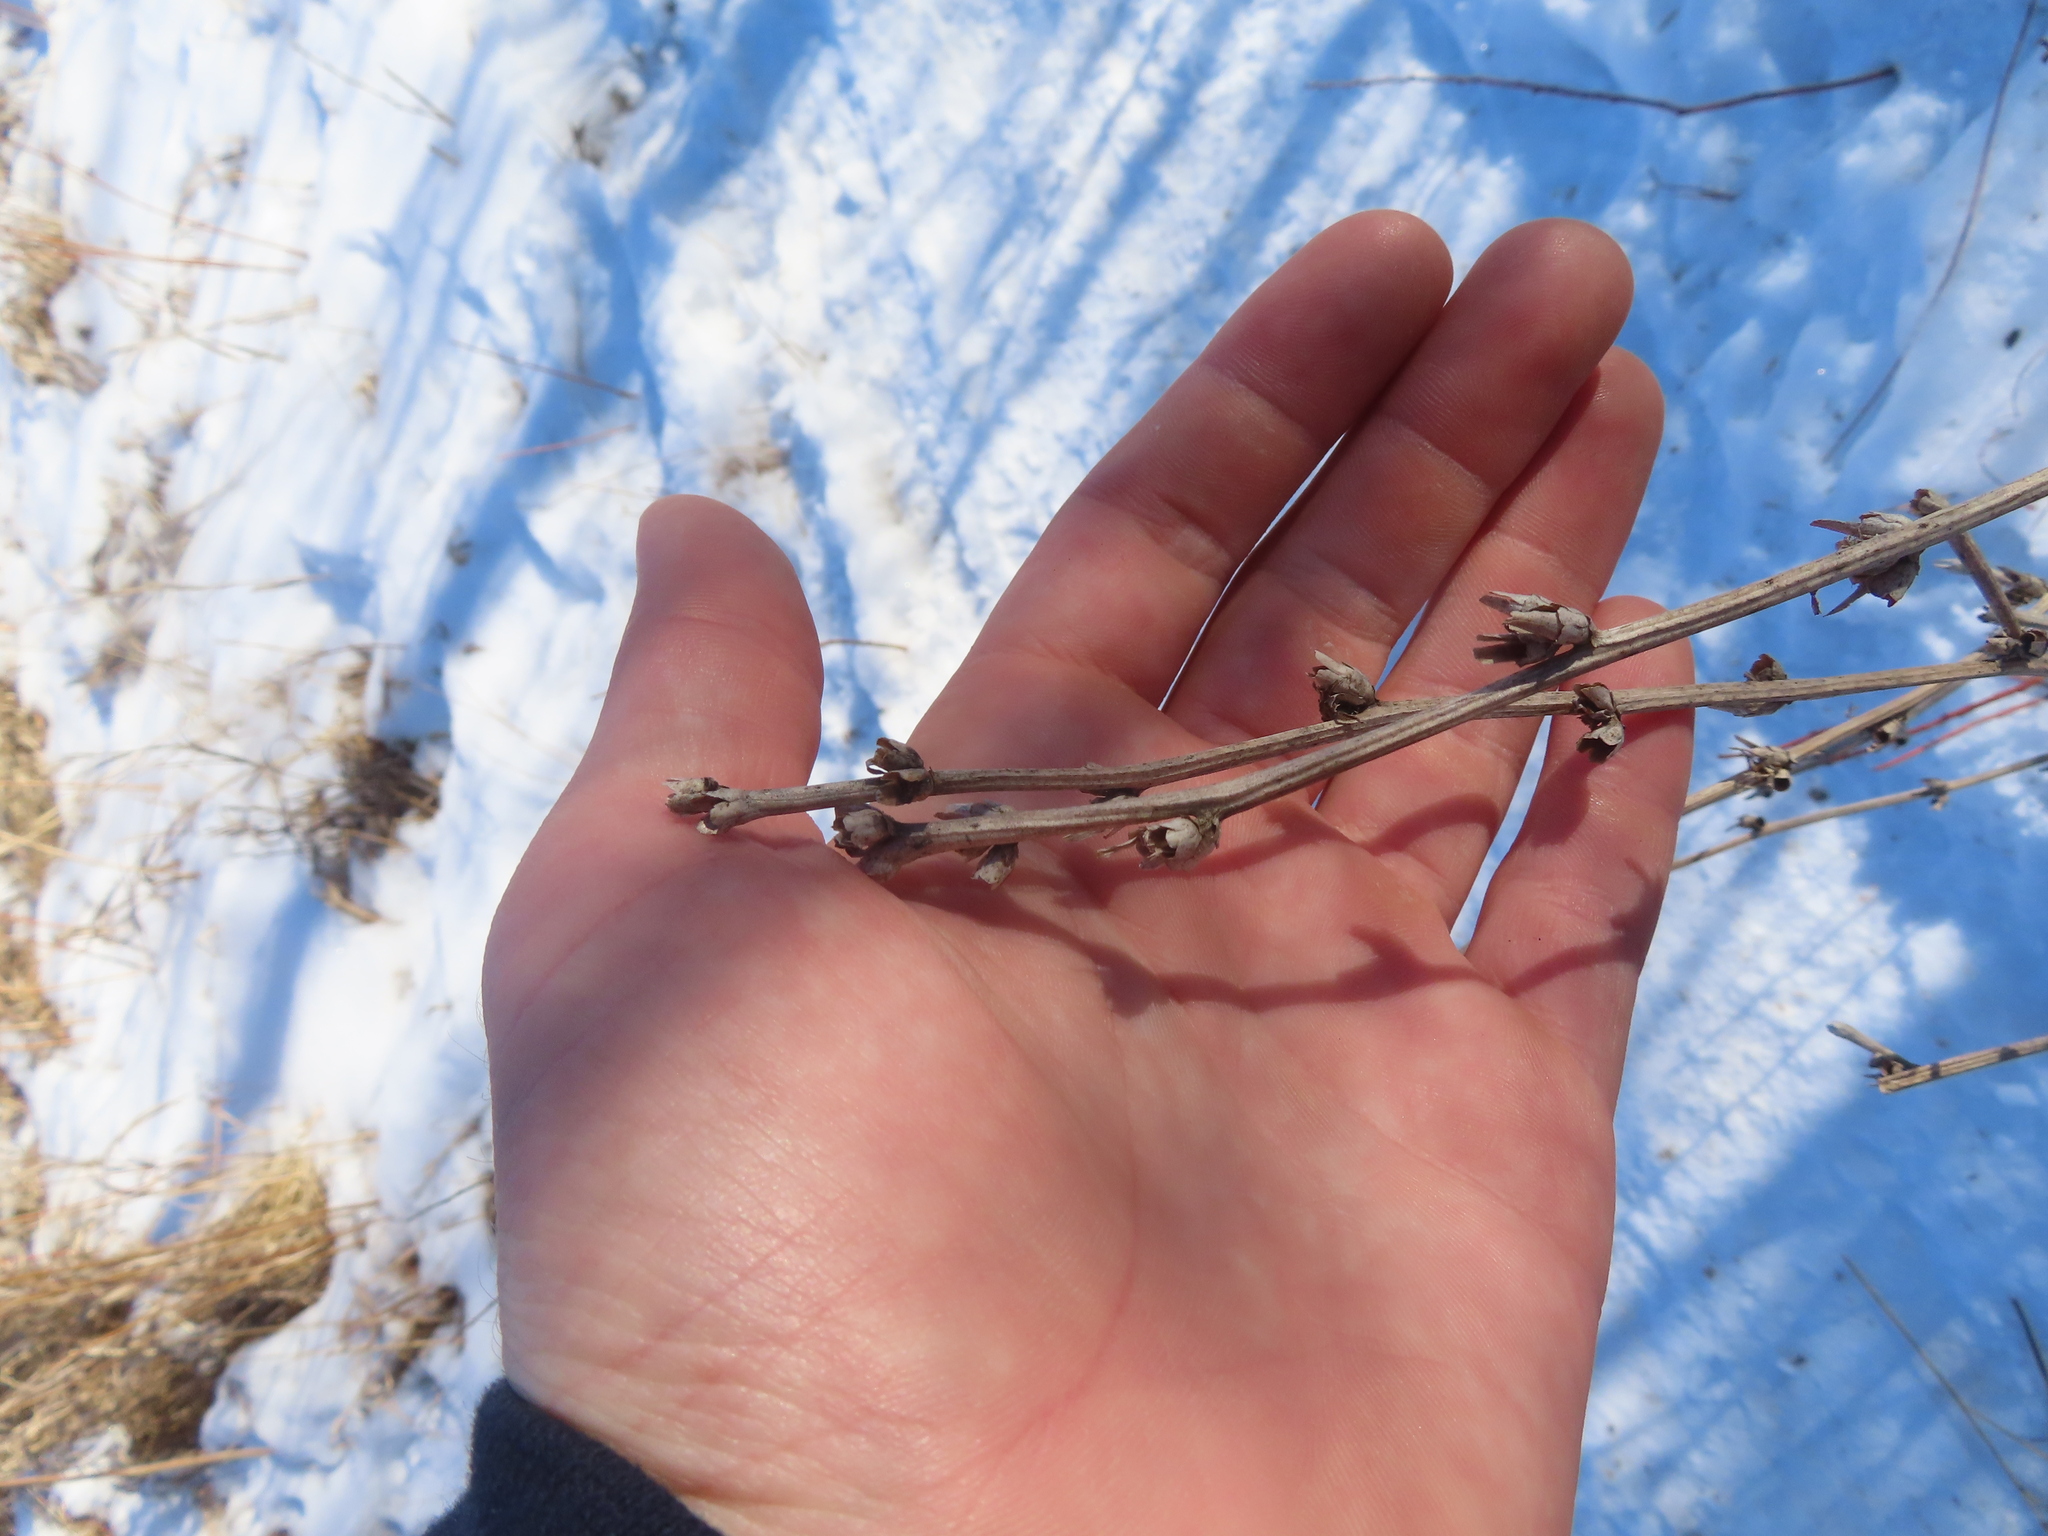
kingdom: Plantae
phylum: Tracheophyta
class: Magnoliopsida
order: Asterales
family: Asteraceae
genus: Cichorium
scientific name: Cichorium intybus
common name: Chicory
